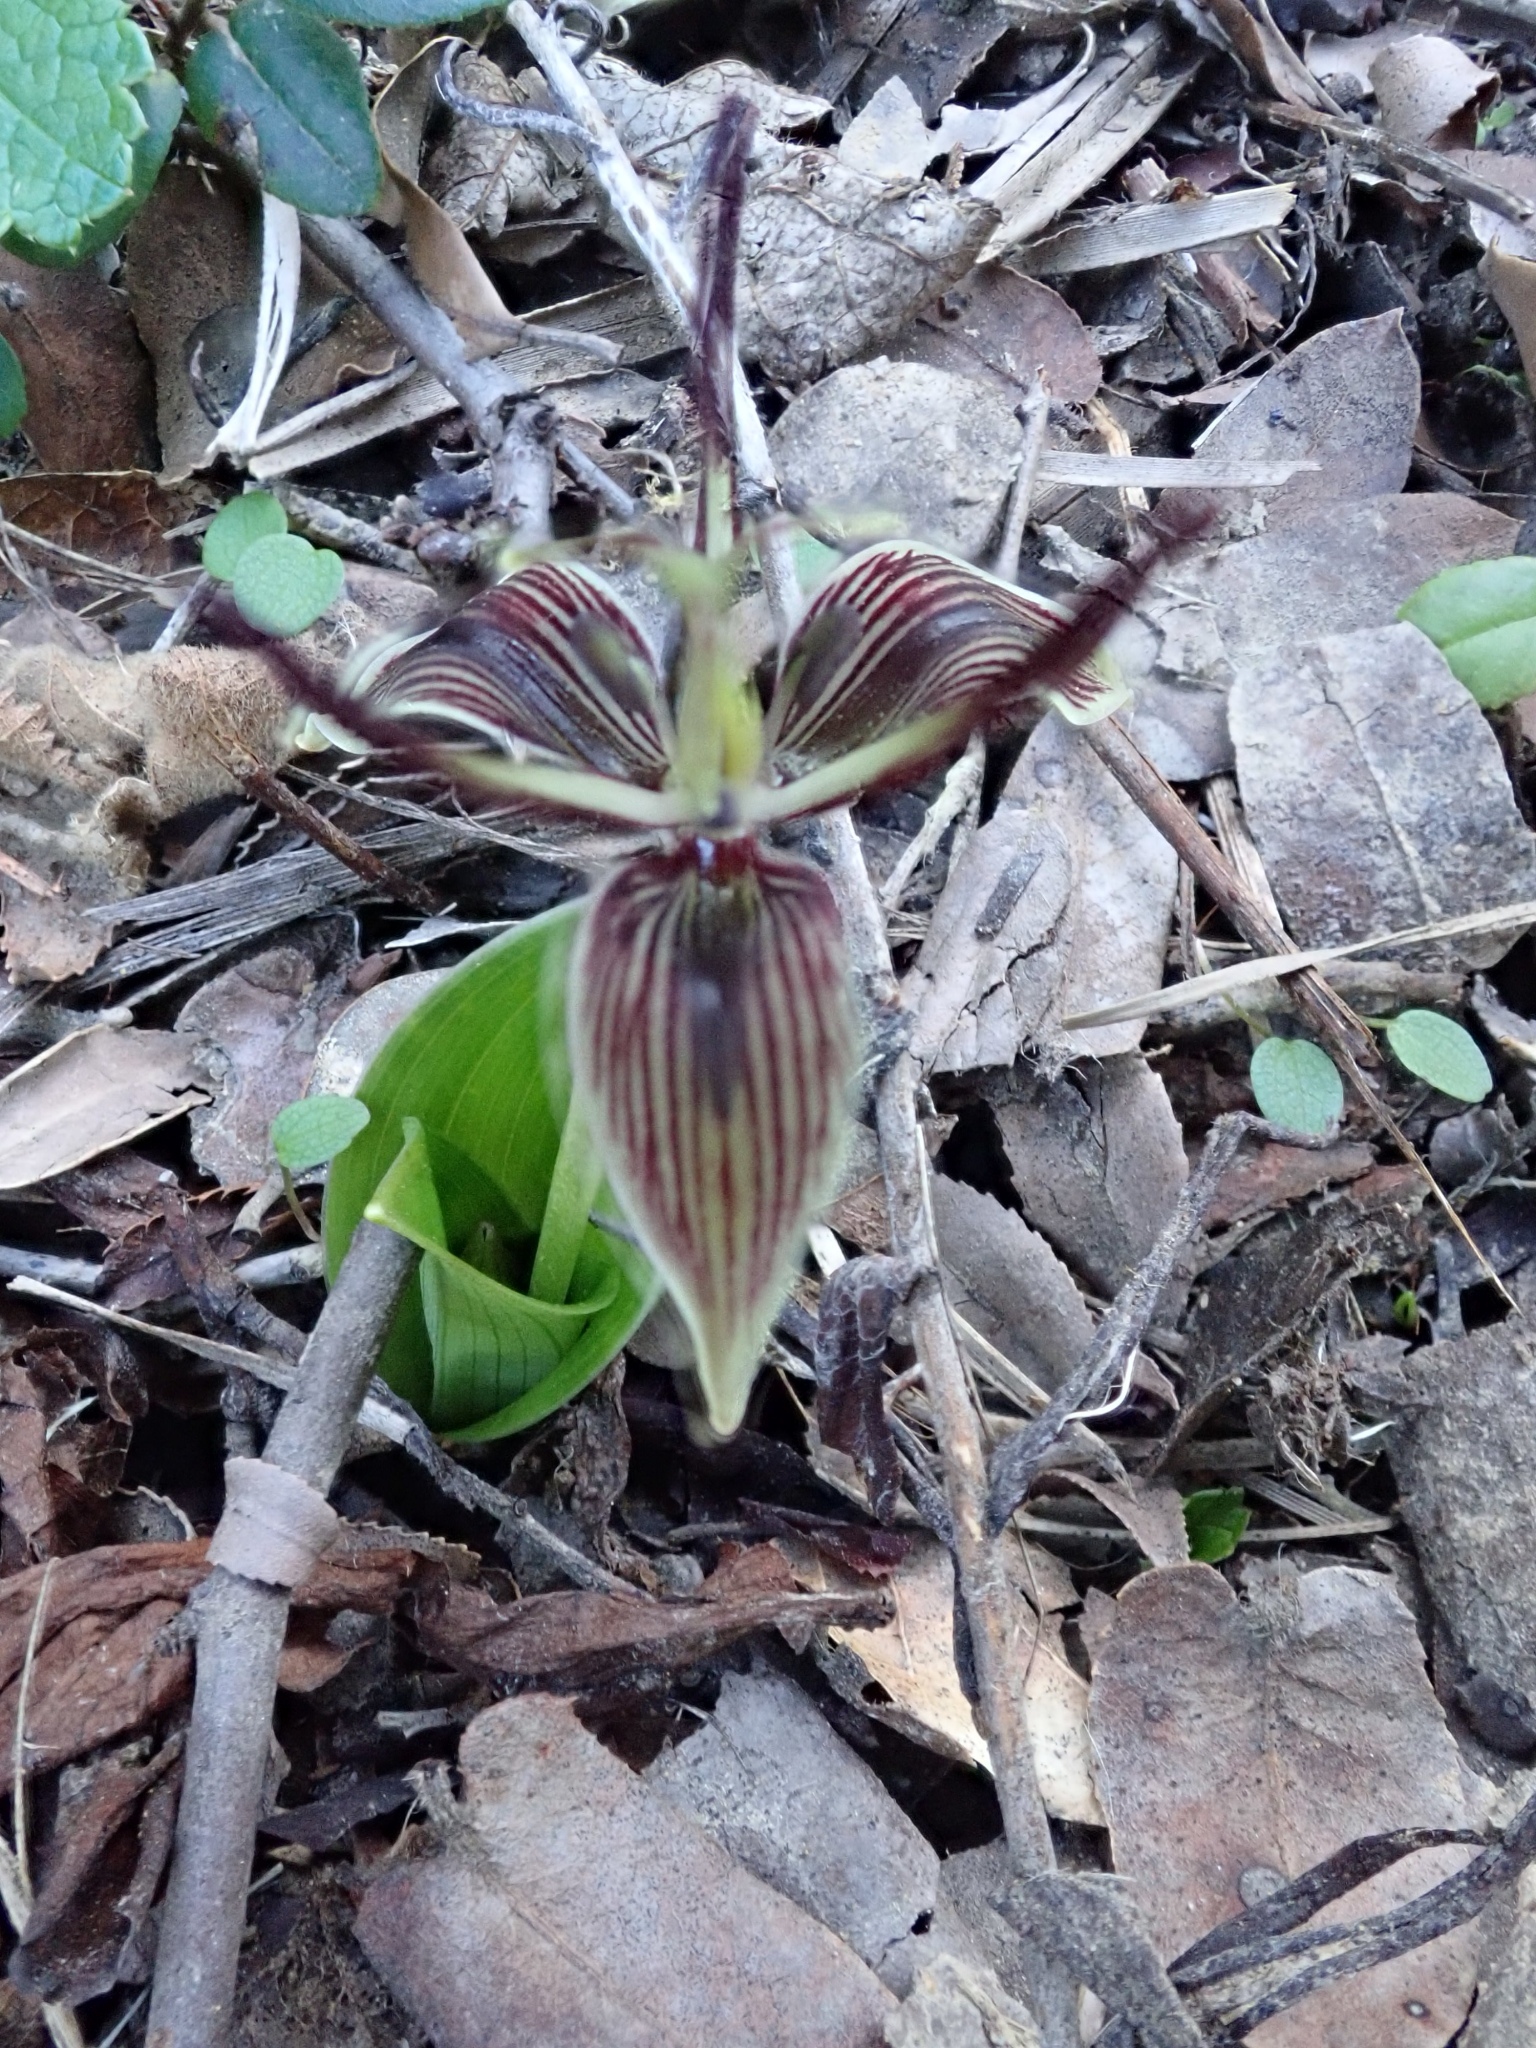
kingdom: Plantae
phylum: Tracheophyta
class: Liliopsida
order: Liliales
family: Liliaceae
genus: Scoliopus
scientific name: Scoliopus bigelovii
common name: Foetid adder's-tongue
